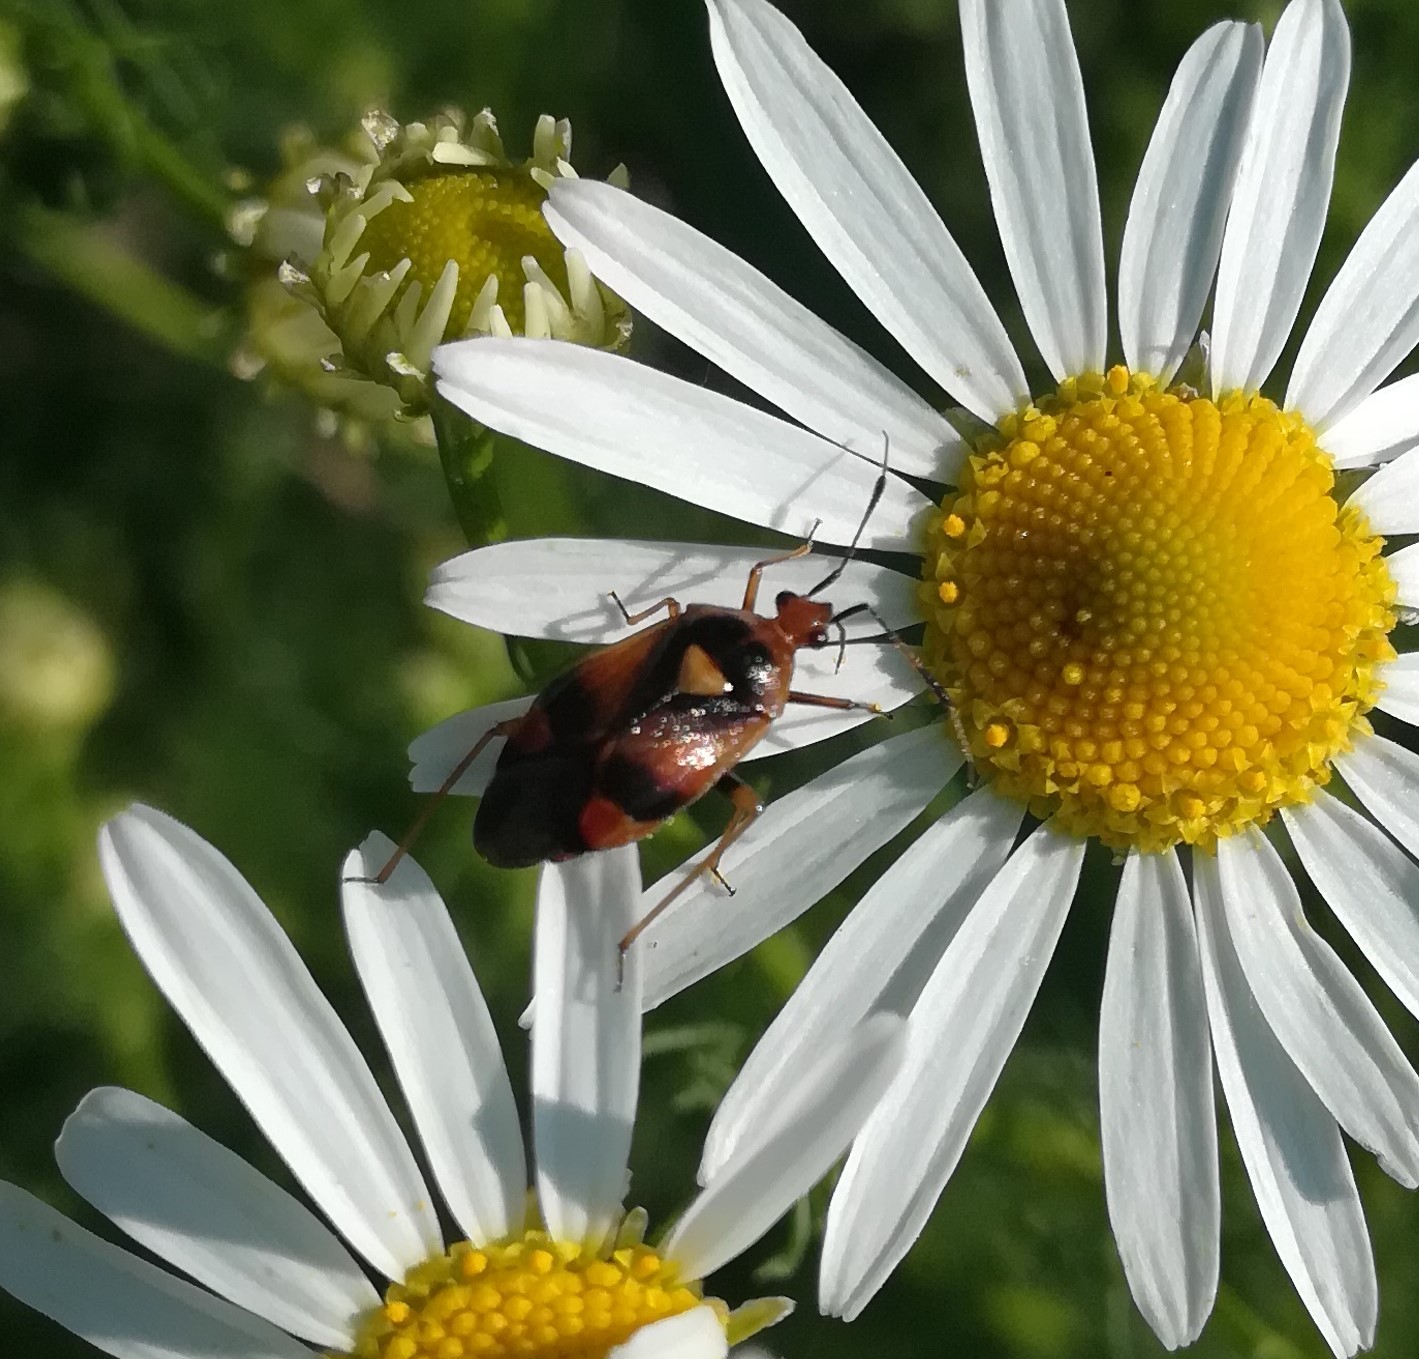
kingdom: Animalia
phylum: Arthropoda
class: Insecta
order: Hemiptera
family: Miridae
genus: Deraeocoris
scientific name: Deraeocoris ruber
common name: Plant bug
